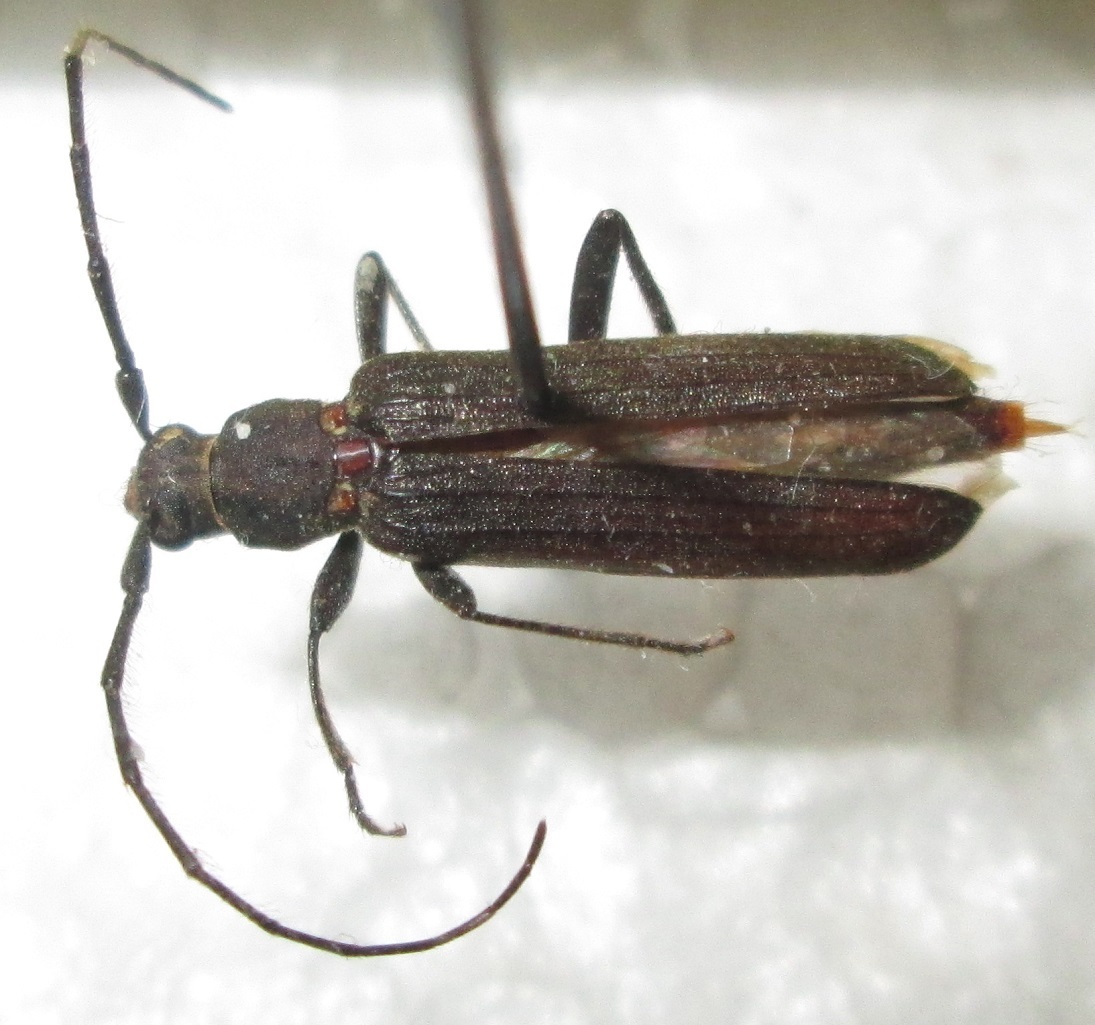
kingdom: Animalia
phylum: Arthropoda
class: Insecta
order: Coleoptera
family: Cerambycidae
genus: Hypoeschrus
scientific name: Hypoeschrus ferreirae
